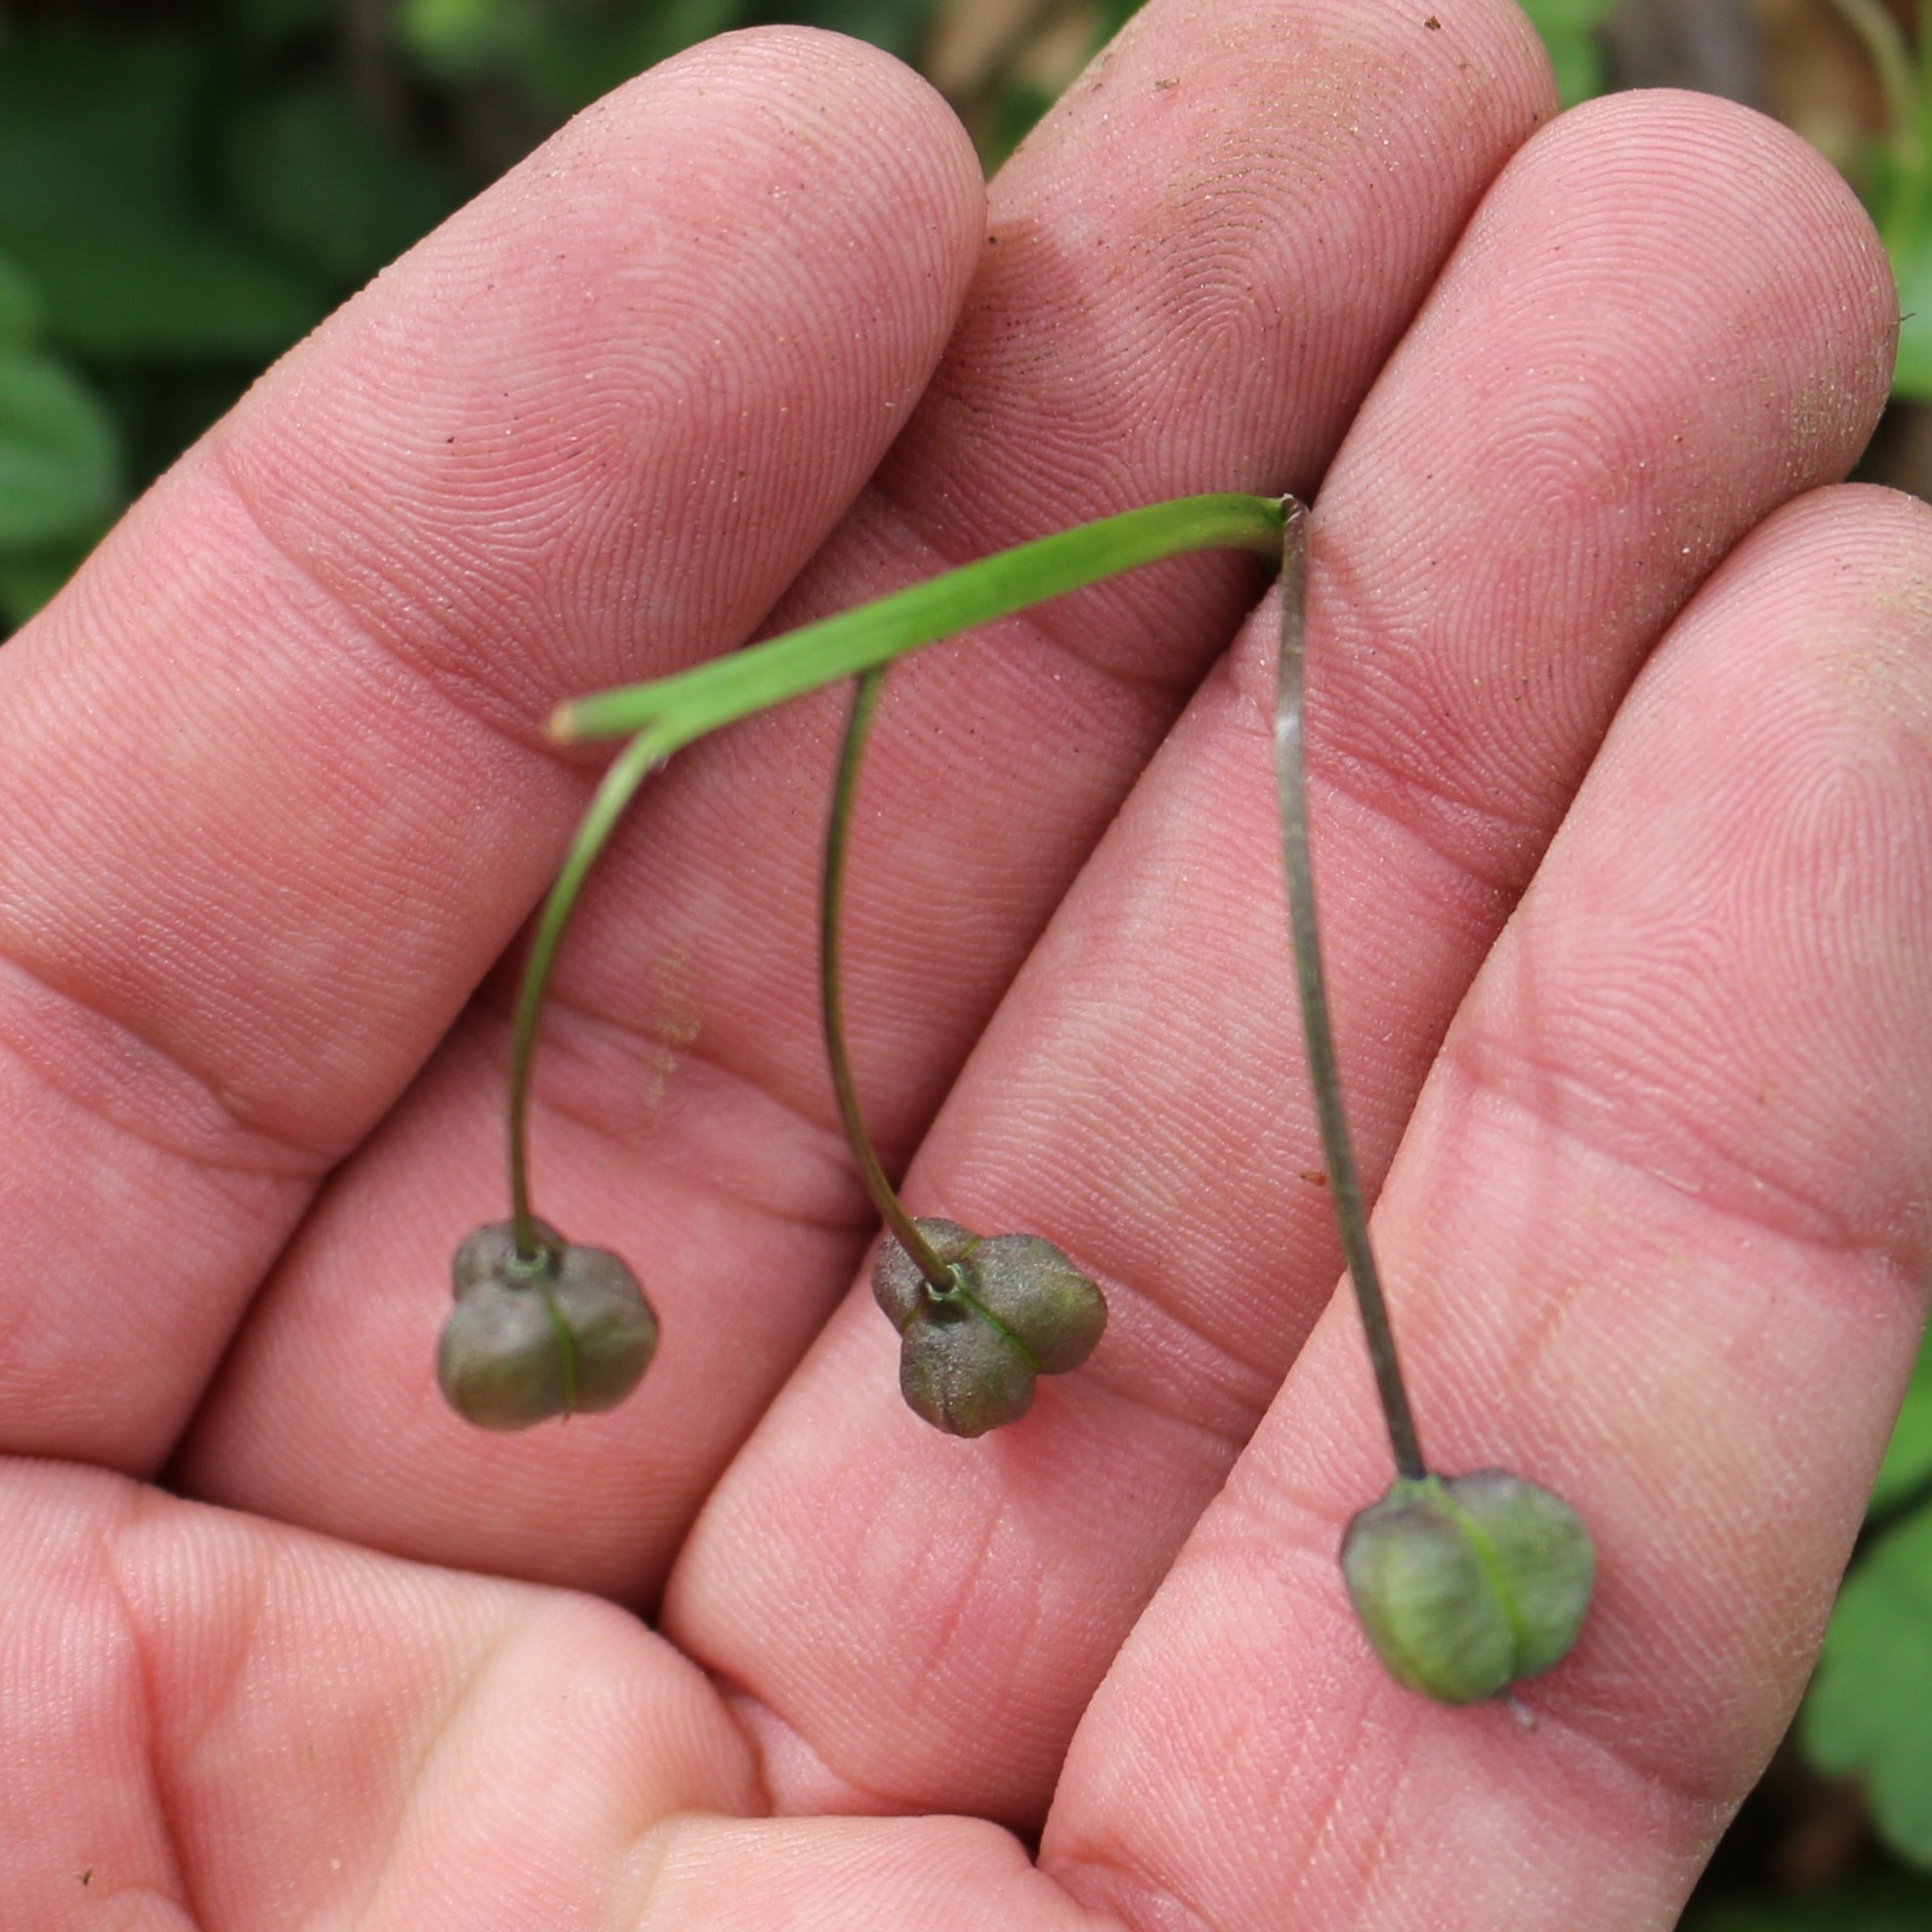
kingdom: Plantae
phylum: Tracheophyta
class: Liliopsida
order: Asparagales
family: Asparagaceae
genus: Scilla
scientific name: Scilla siberica
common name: Siberian squill
